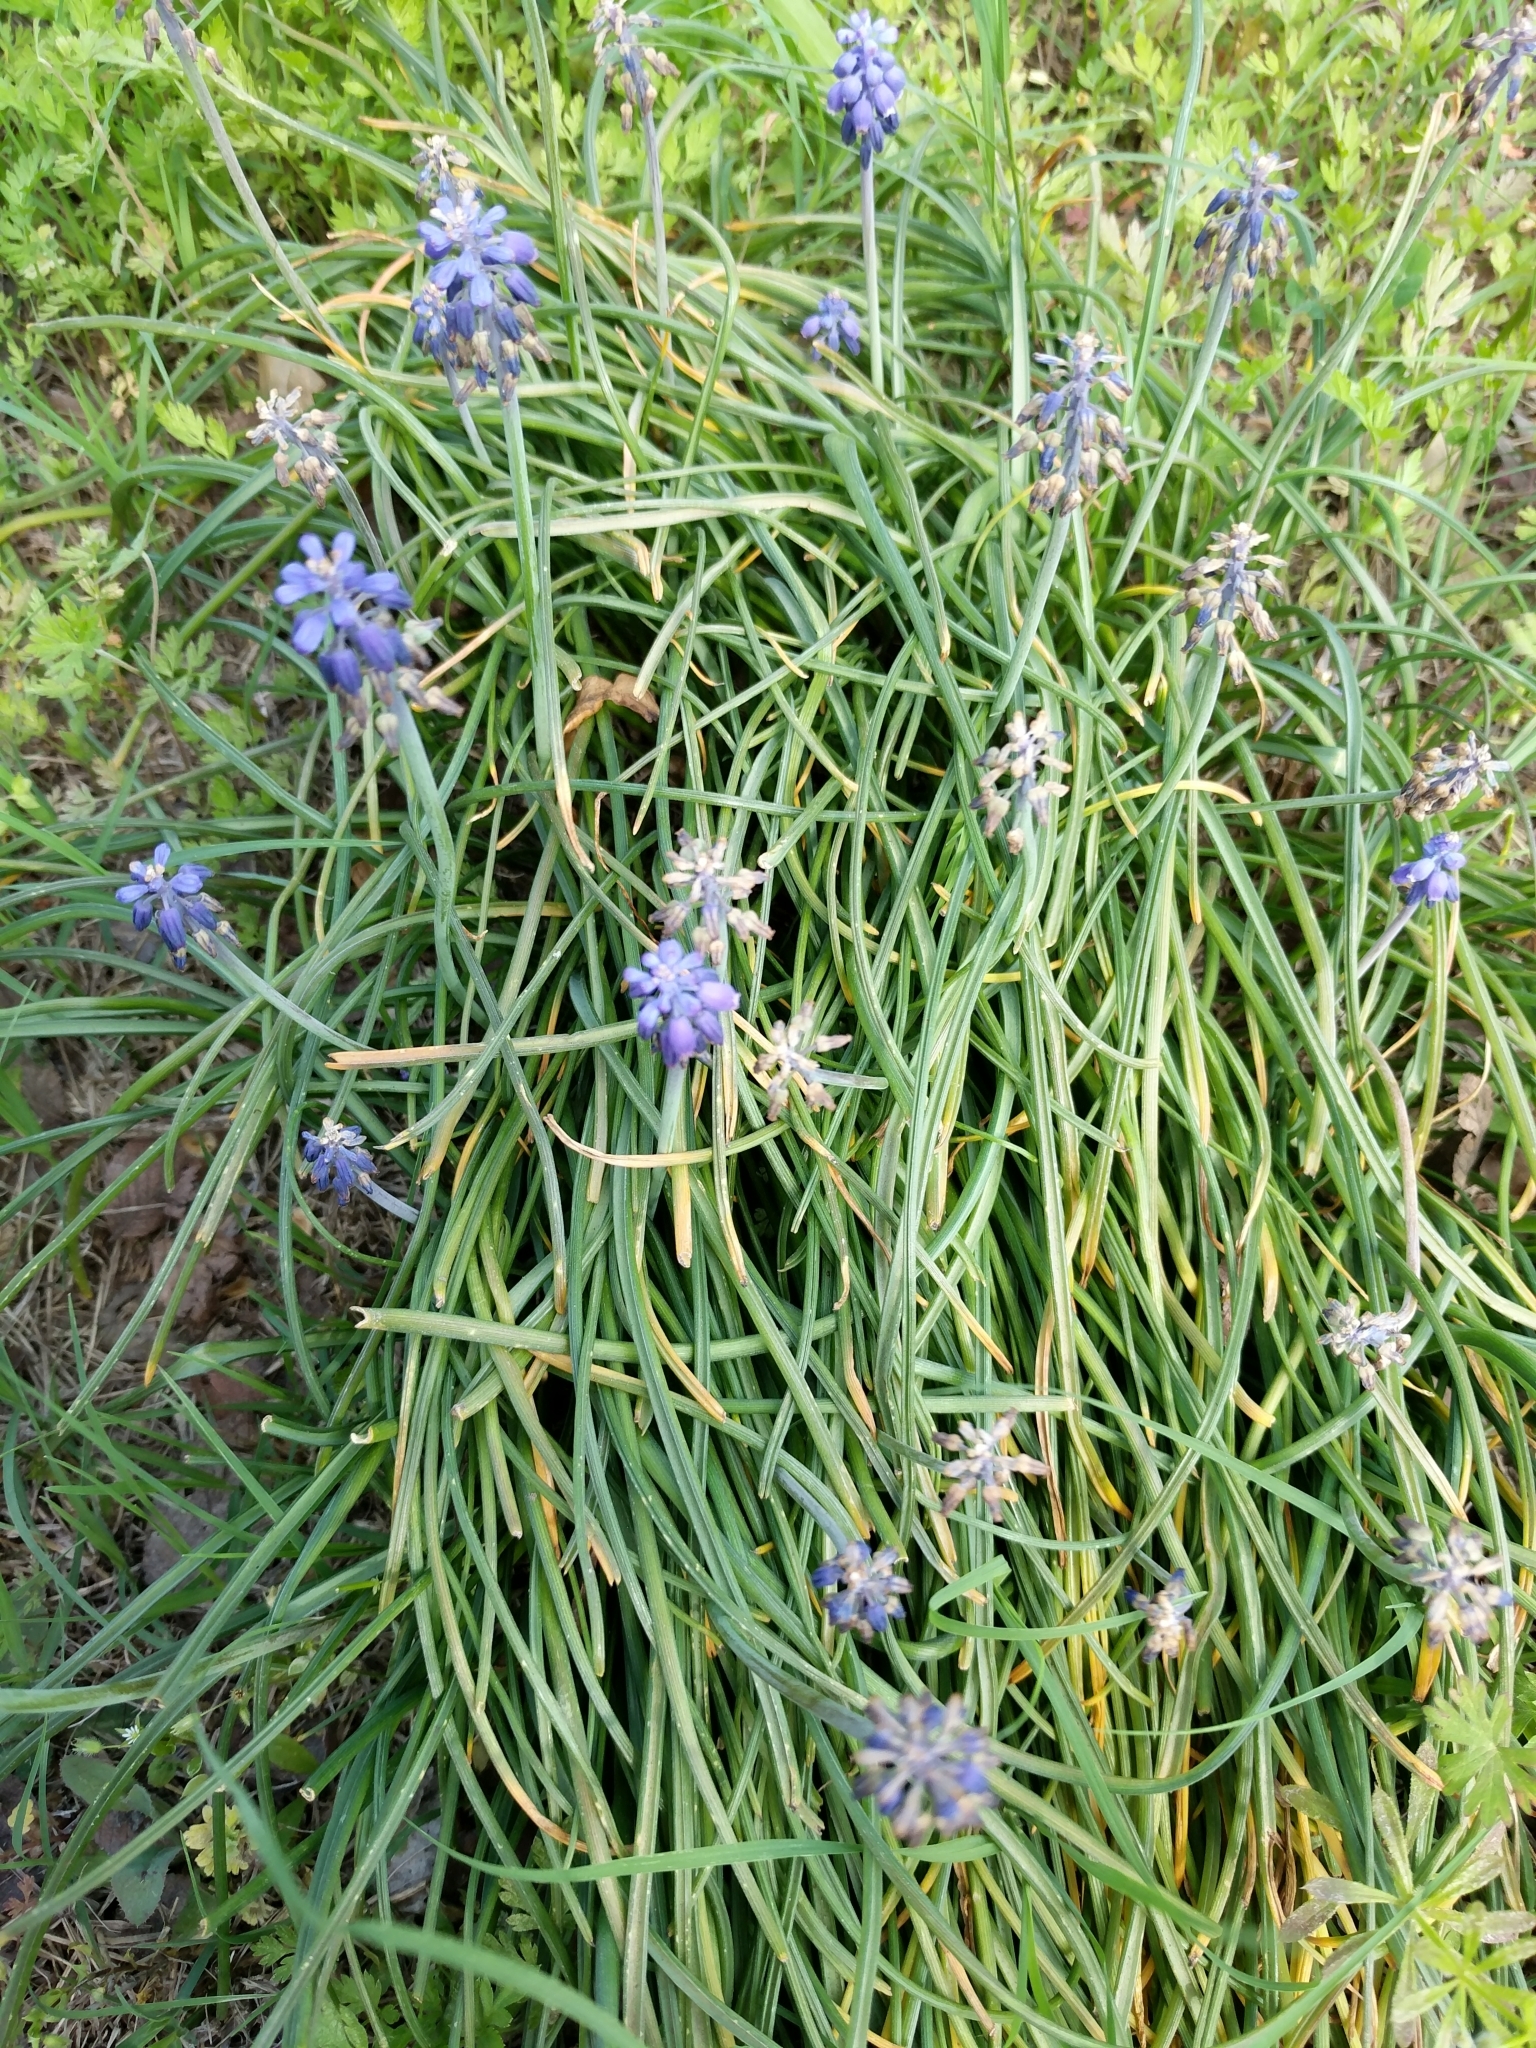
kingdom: Plantae
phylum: Tracheophyta
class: Liliopsida
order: Asparagales
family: Asparagaceae
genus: Muscari
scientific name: Muscari neglectum
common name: Grape-hyacinth
